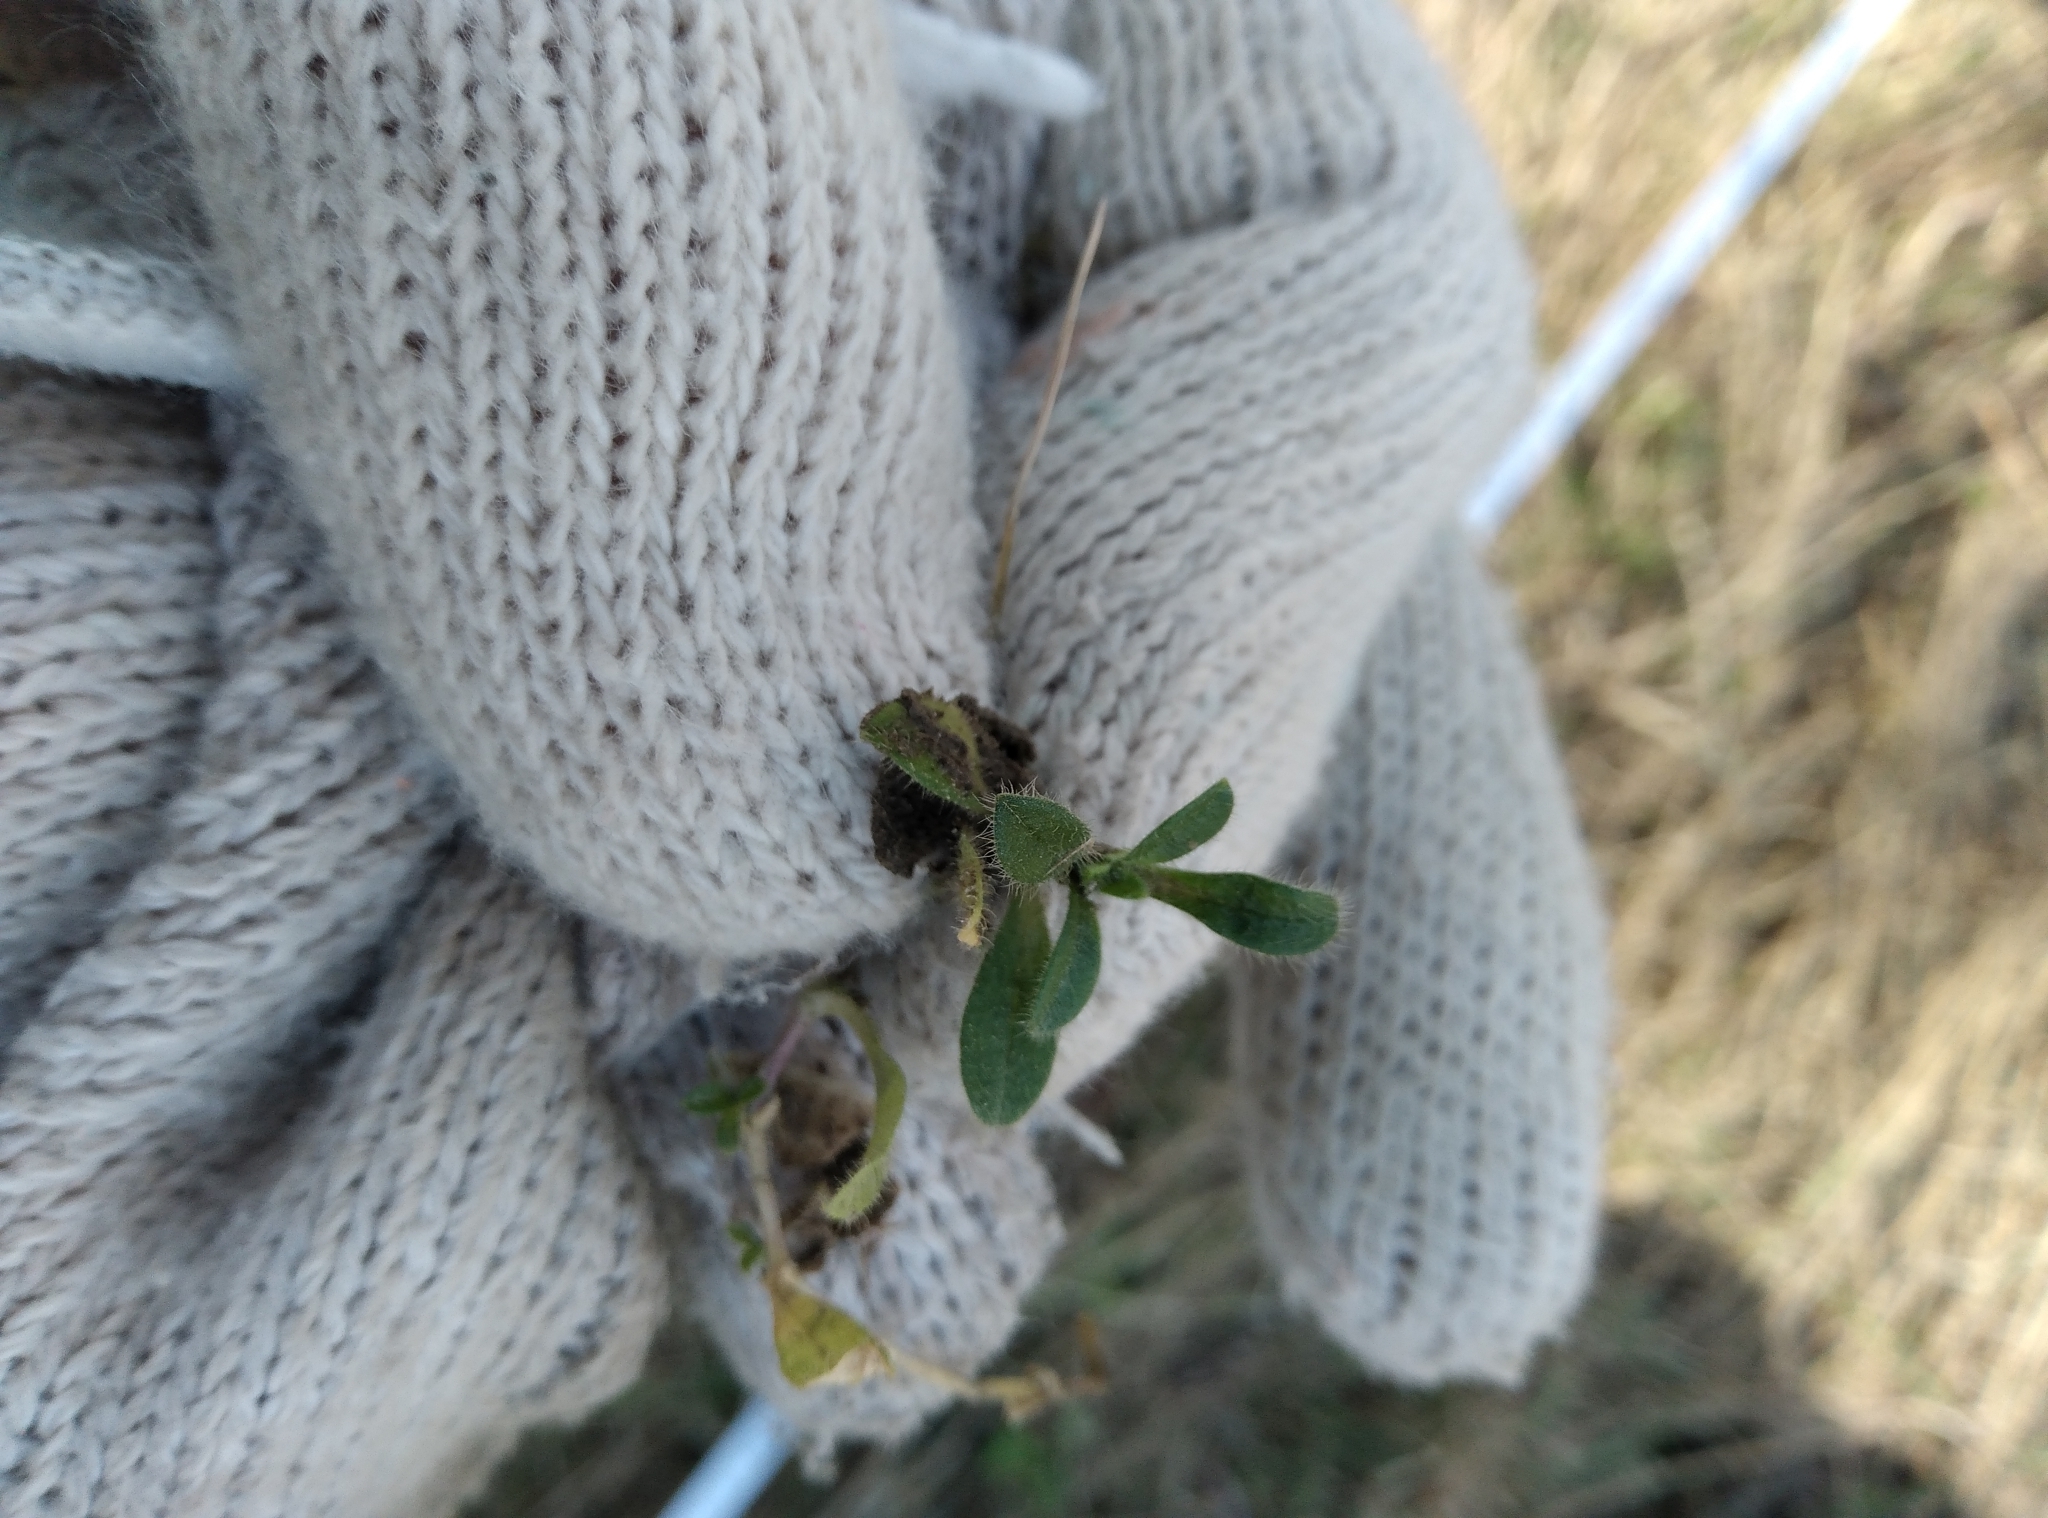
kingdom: Plantae
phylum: Tracheophyta
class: Magnoliopsida
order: Caryophyllales
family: Caryophyllaceae
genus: Cerastium
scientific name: Cerastium fontanum
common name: Common mouse-ear
